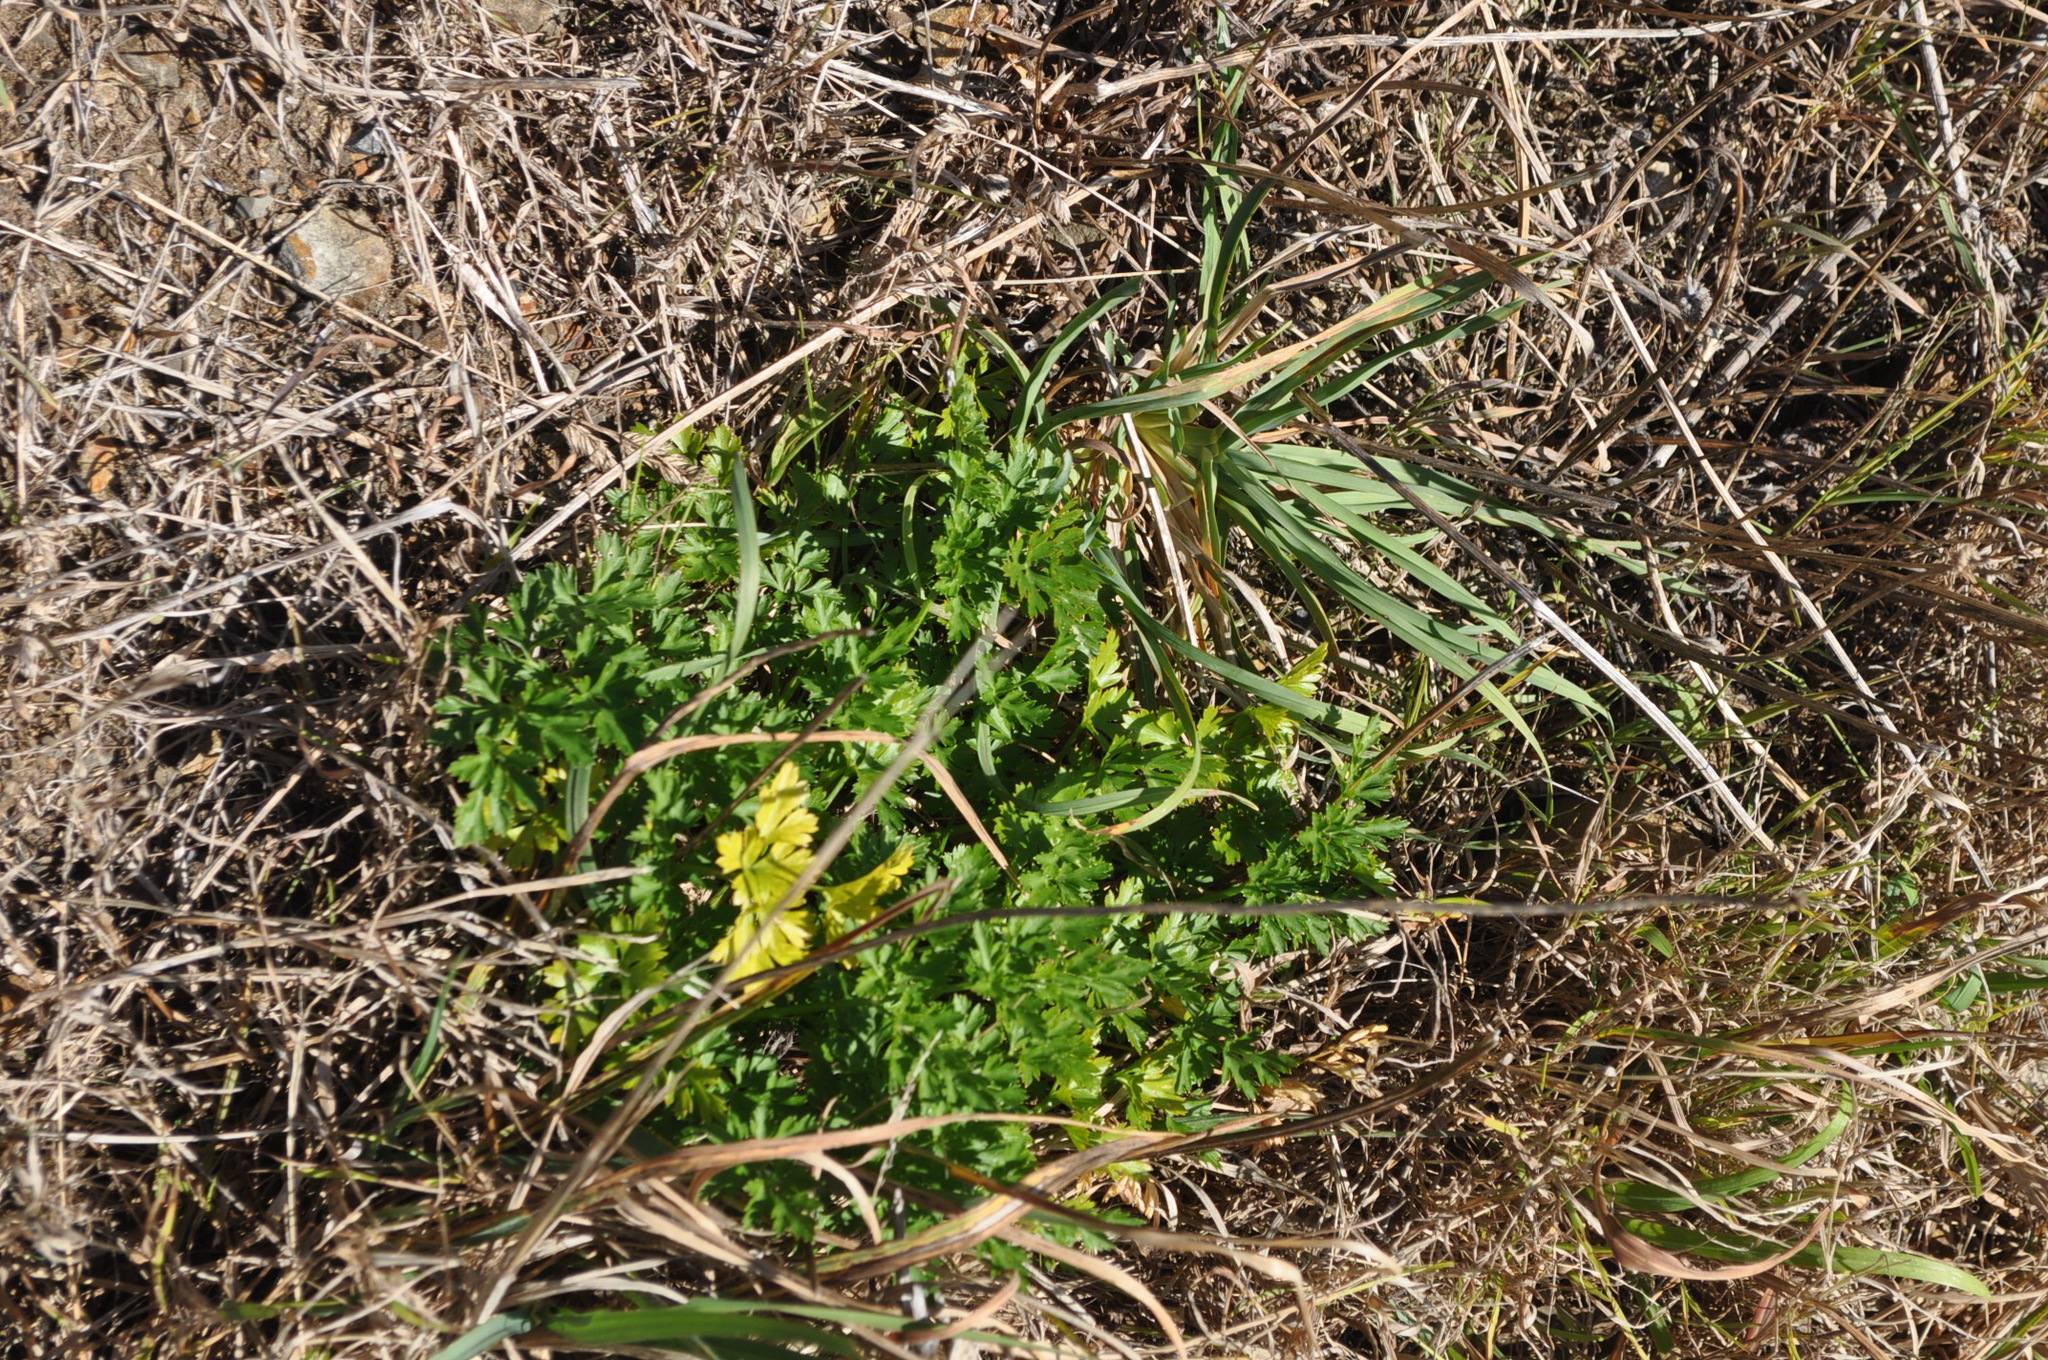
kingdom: Plantae
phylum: Tracheophyta
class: Magnoliopsida
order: Apiales
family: Apiaceae
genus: Petroselinum
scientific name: Petroselinum crispum
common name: Parsley
